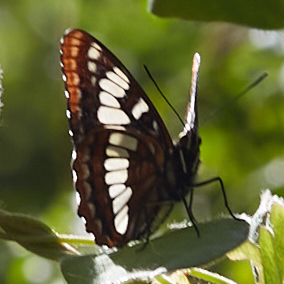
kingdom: Animalia
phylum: Arthropoda
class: Insecta
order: Lepidoptera
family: Nymphalidae
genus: Limenitis
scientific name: Limenitis lorquini
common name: Lorquin's admiral
